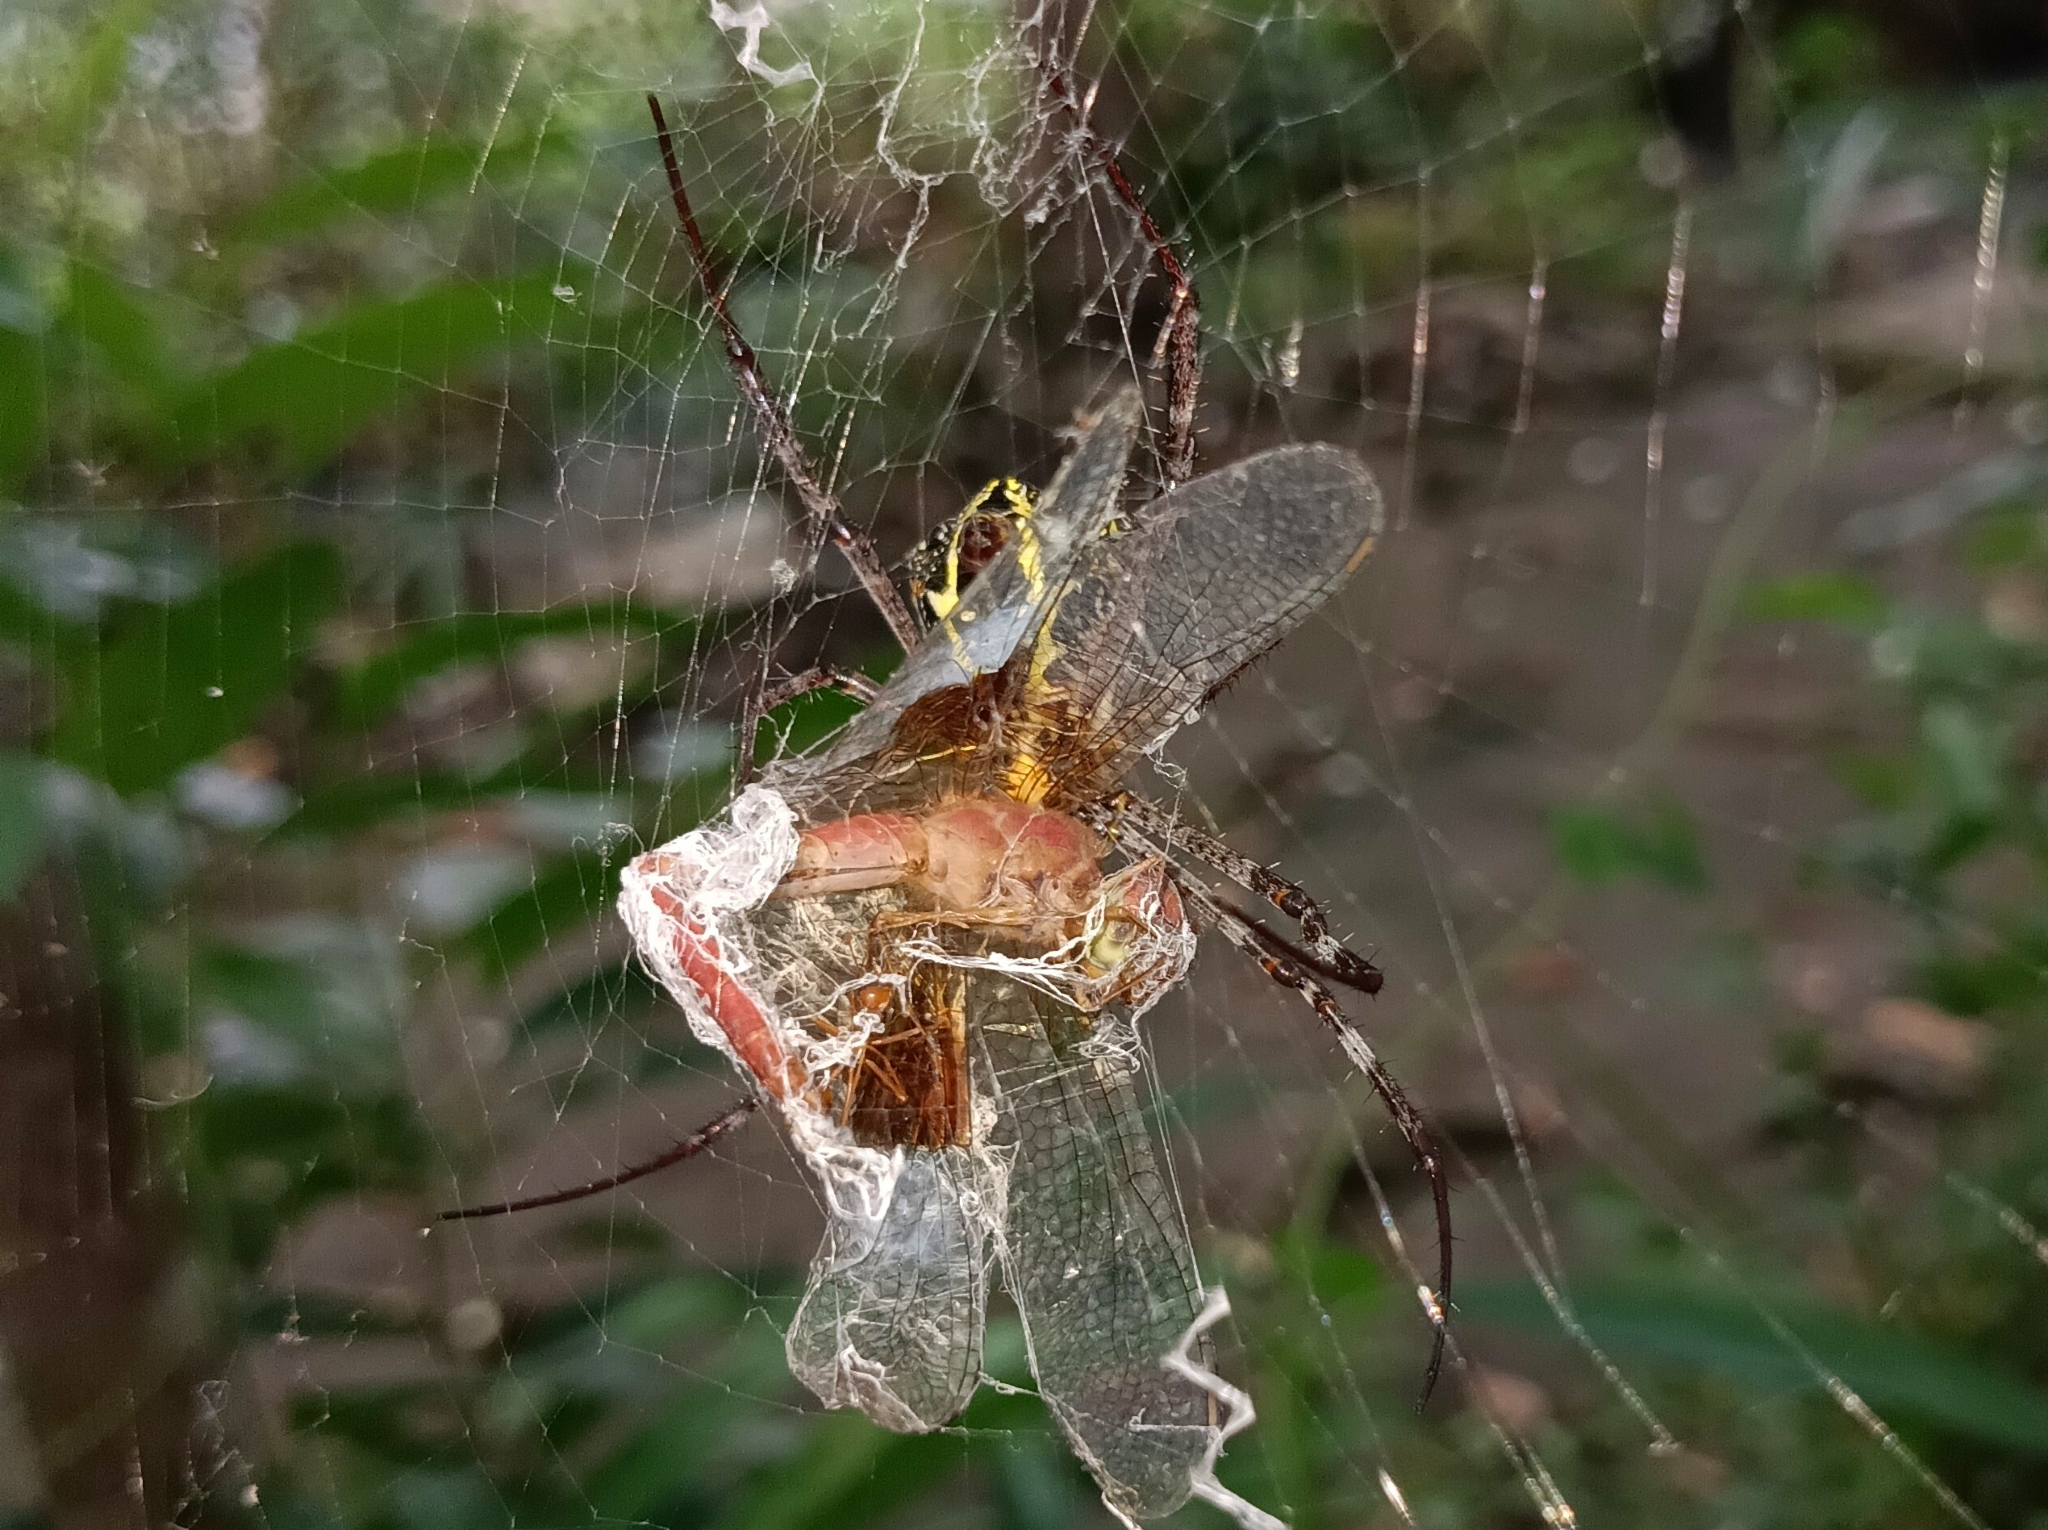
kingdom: Animalia
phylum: Arthropoda
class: Insecta
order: Odonata
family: Libellulidae
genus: Tholymis
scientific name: Tholymis tillarga
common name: Coral-tailed cloud wing
